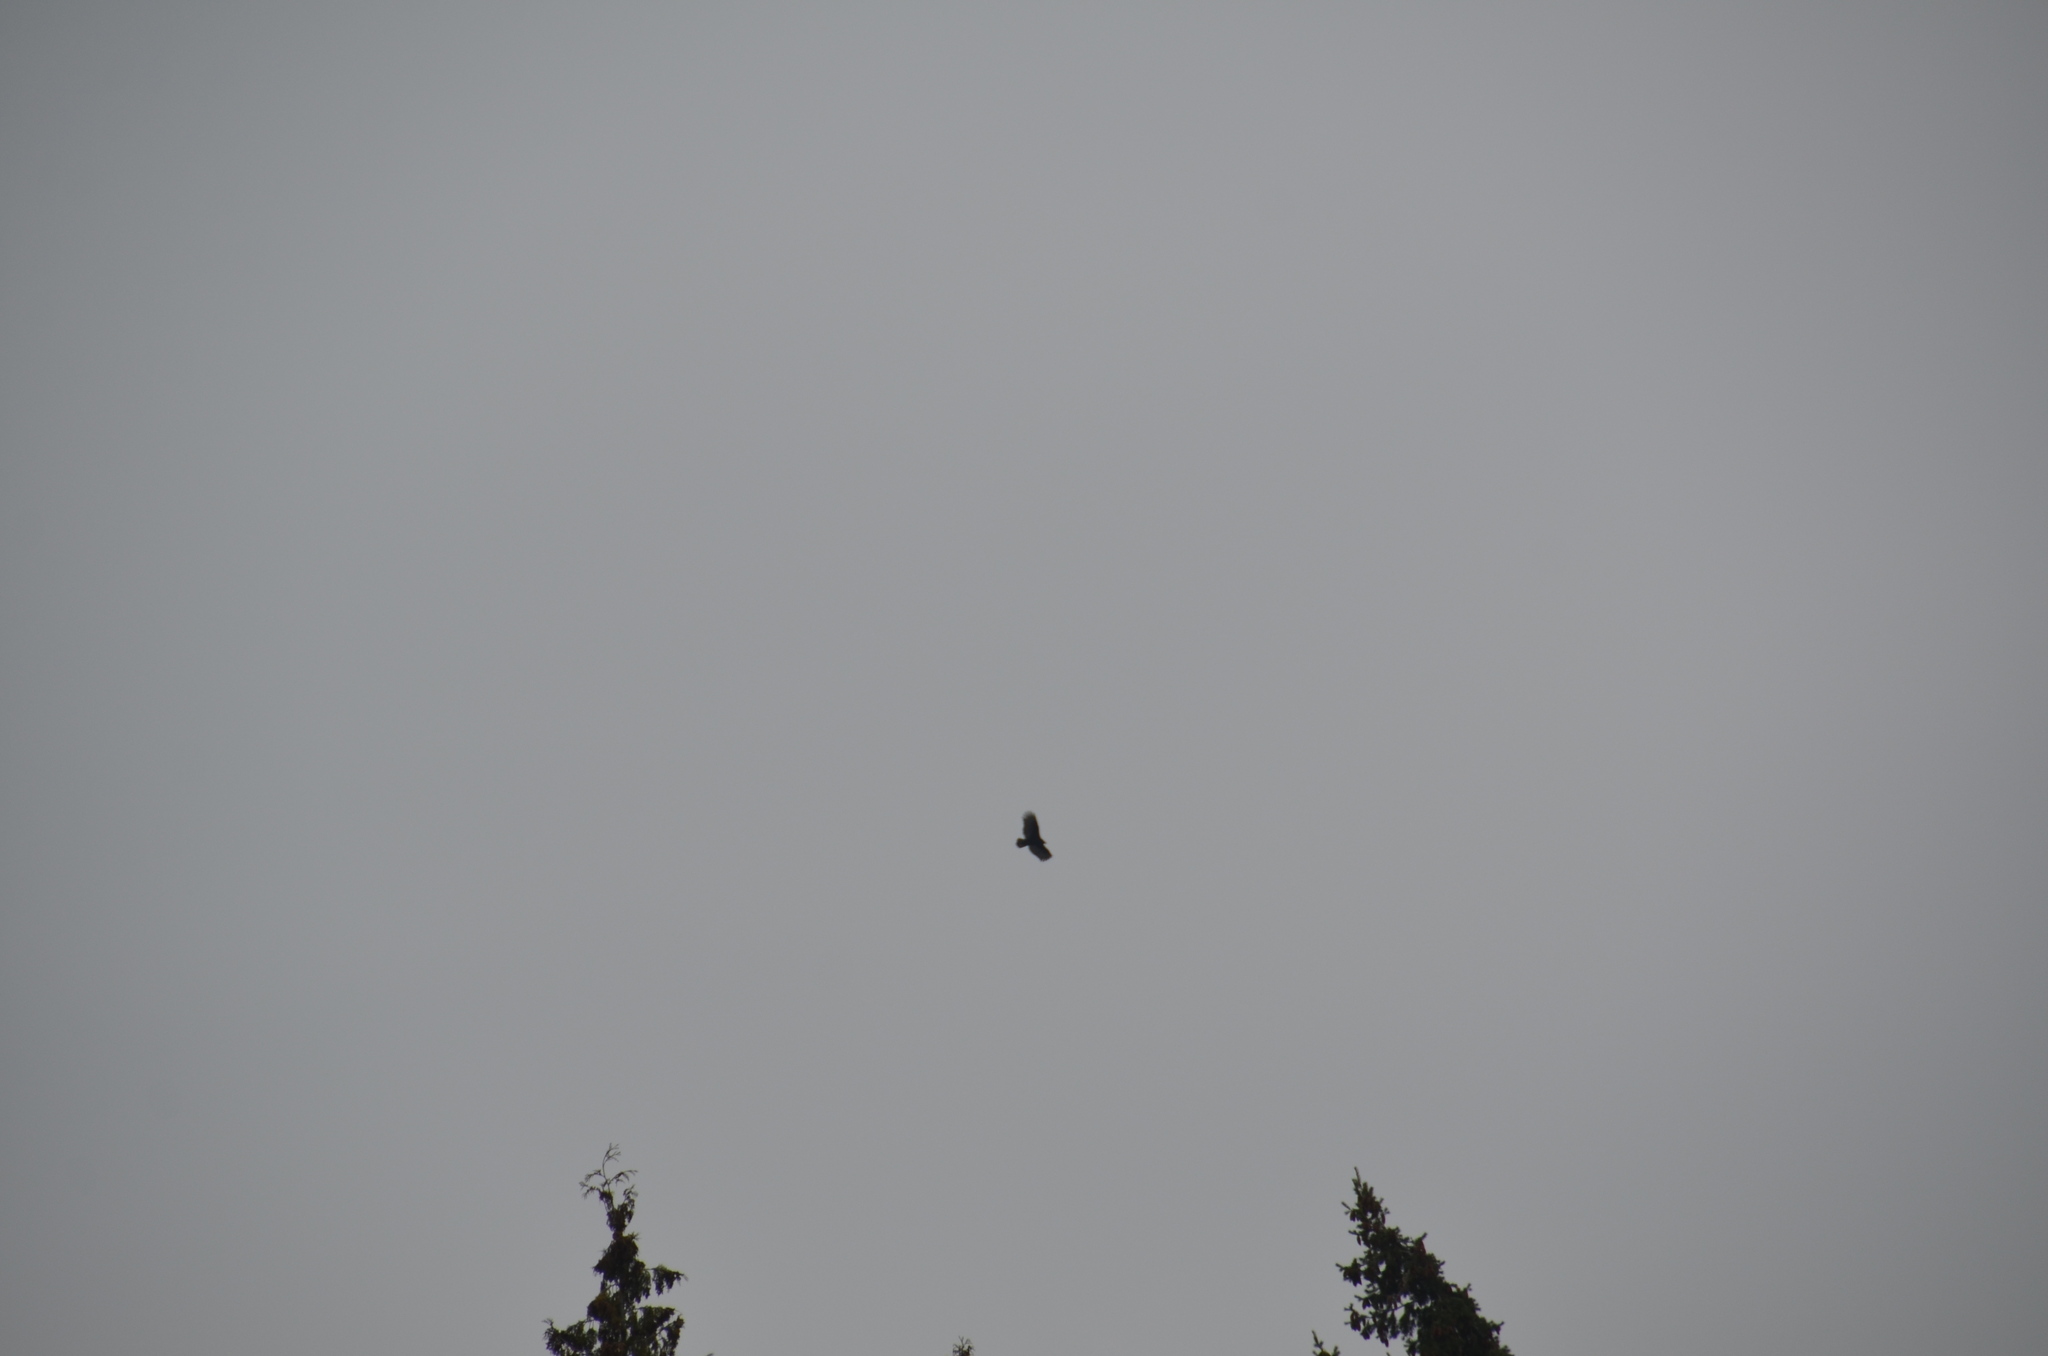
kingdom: Animalia
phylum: Chordata
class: Aves
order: Accipitriformes
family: Cathartidae
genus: Cathartes
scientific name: Cathartes aura
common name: Turkey vulture
